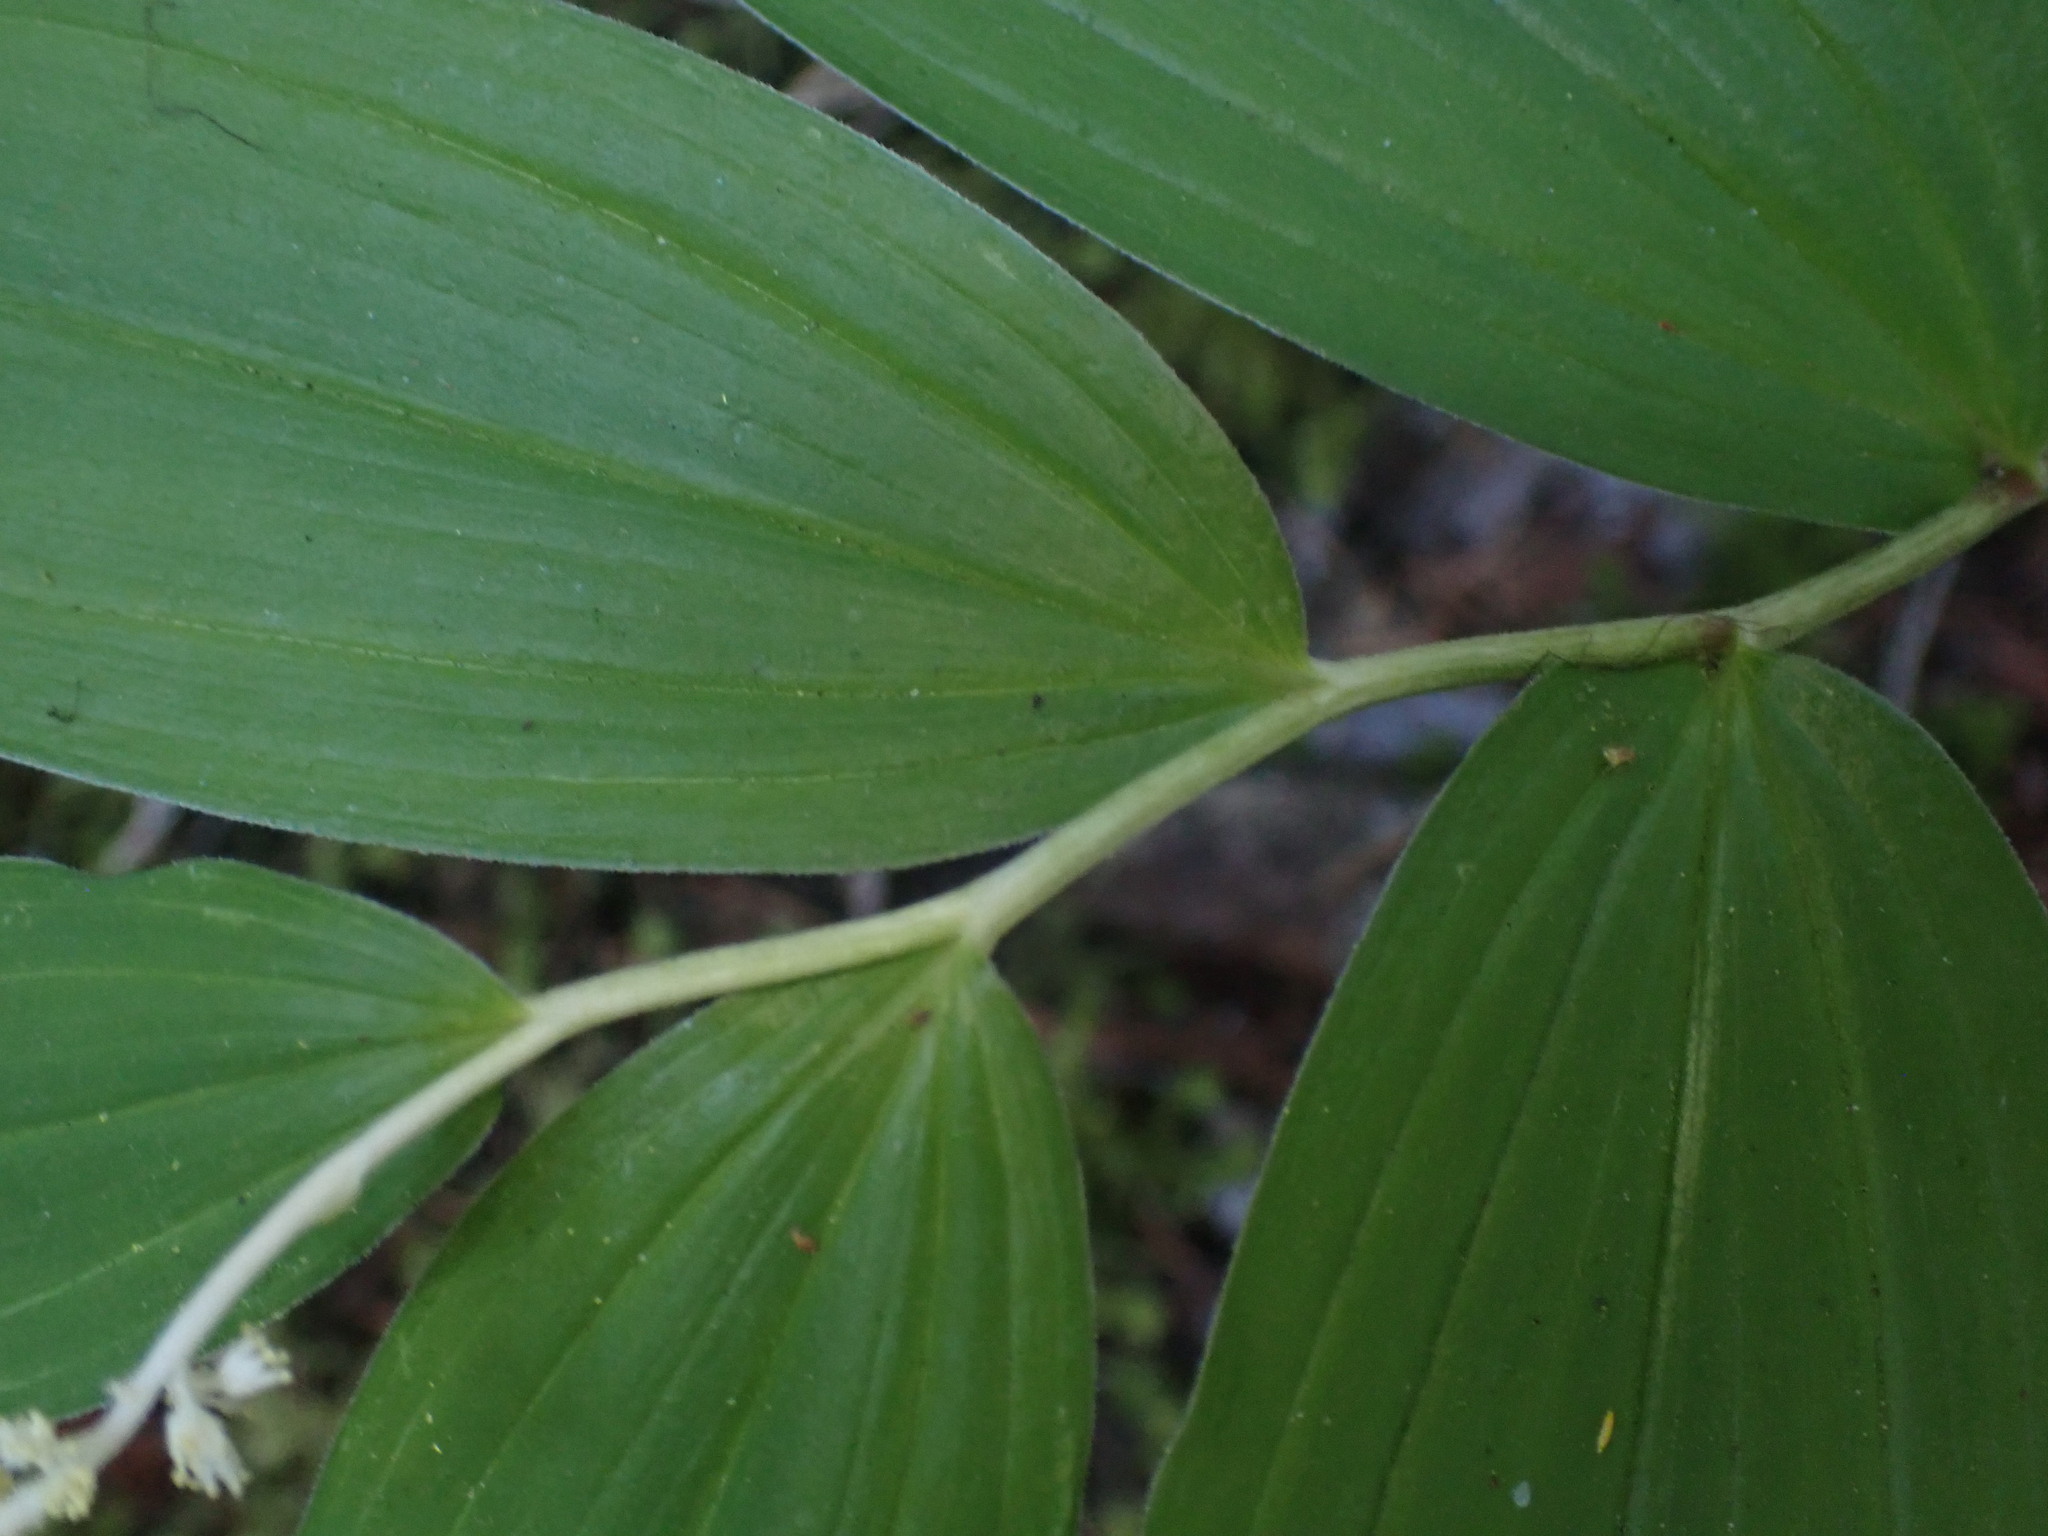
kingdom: Plantae
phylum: Tracheophyta
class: Liliopsida
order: Asparagales
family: Asparagaceae
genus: Maianthemum
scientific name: Maianthemum racemosum
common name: False spikenard
